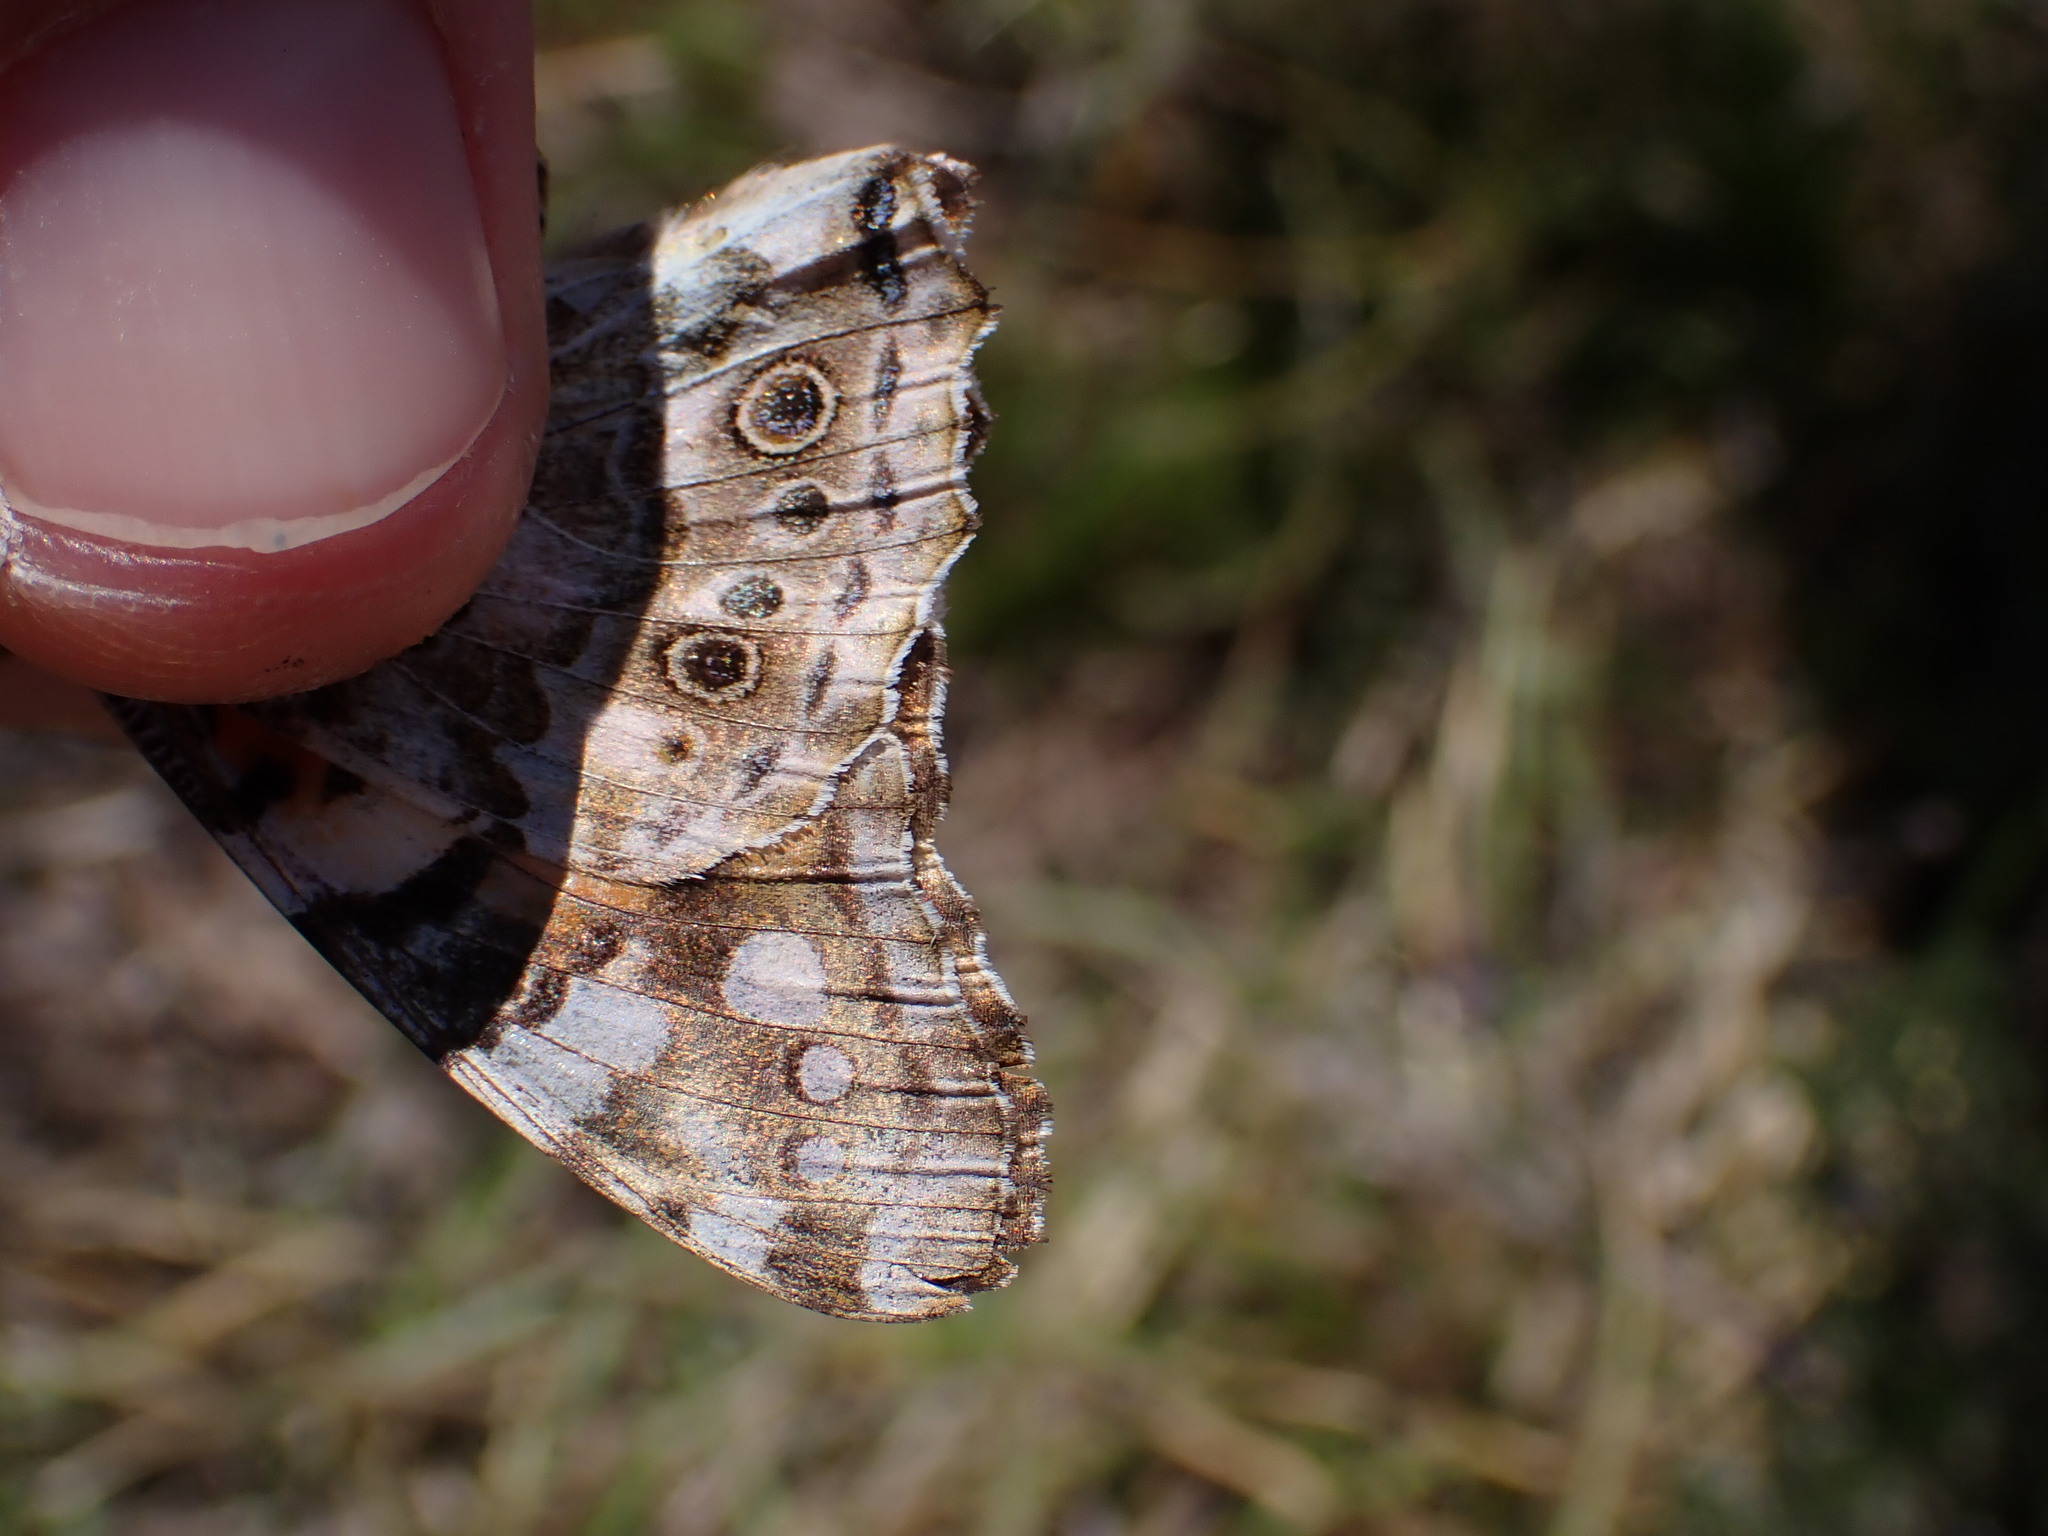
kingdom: Animalia
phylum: Arthropoda
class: Insecta
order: Lepidoptera
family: Nymphalidae
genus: Vanessa
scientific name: Vanessa cardui
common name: Painted lady
